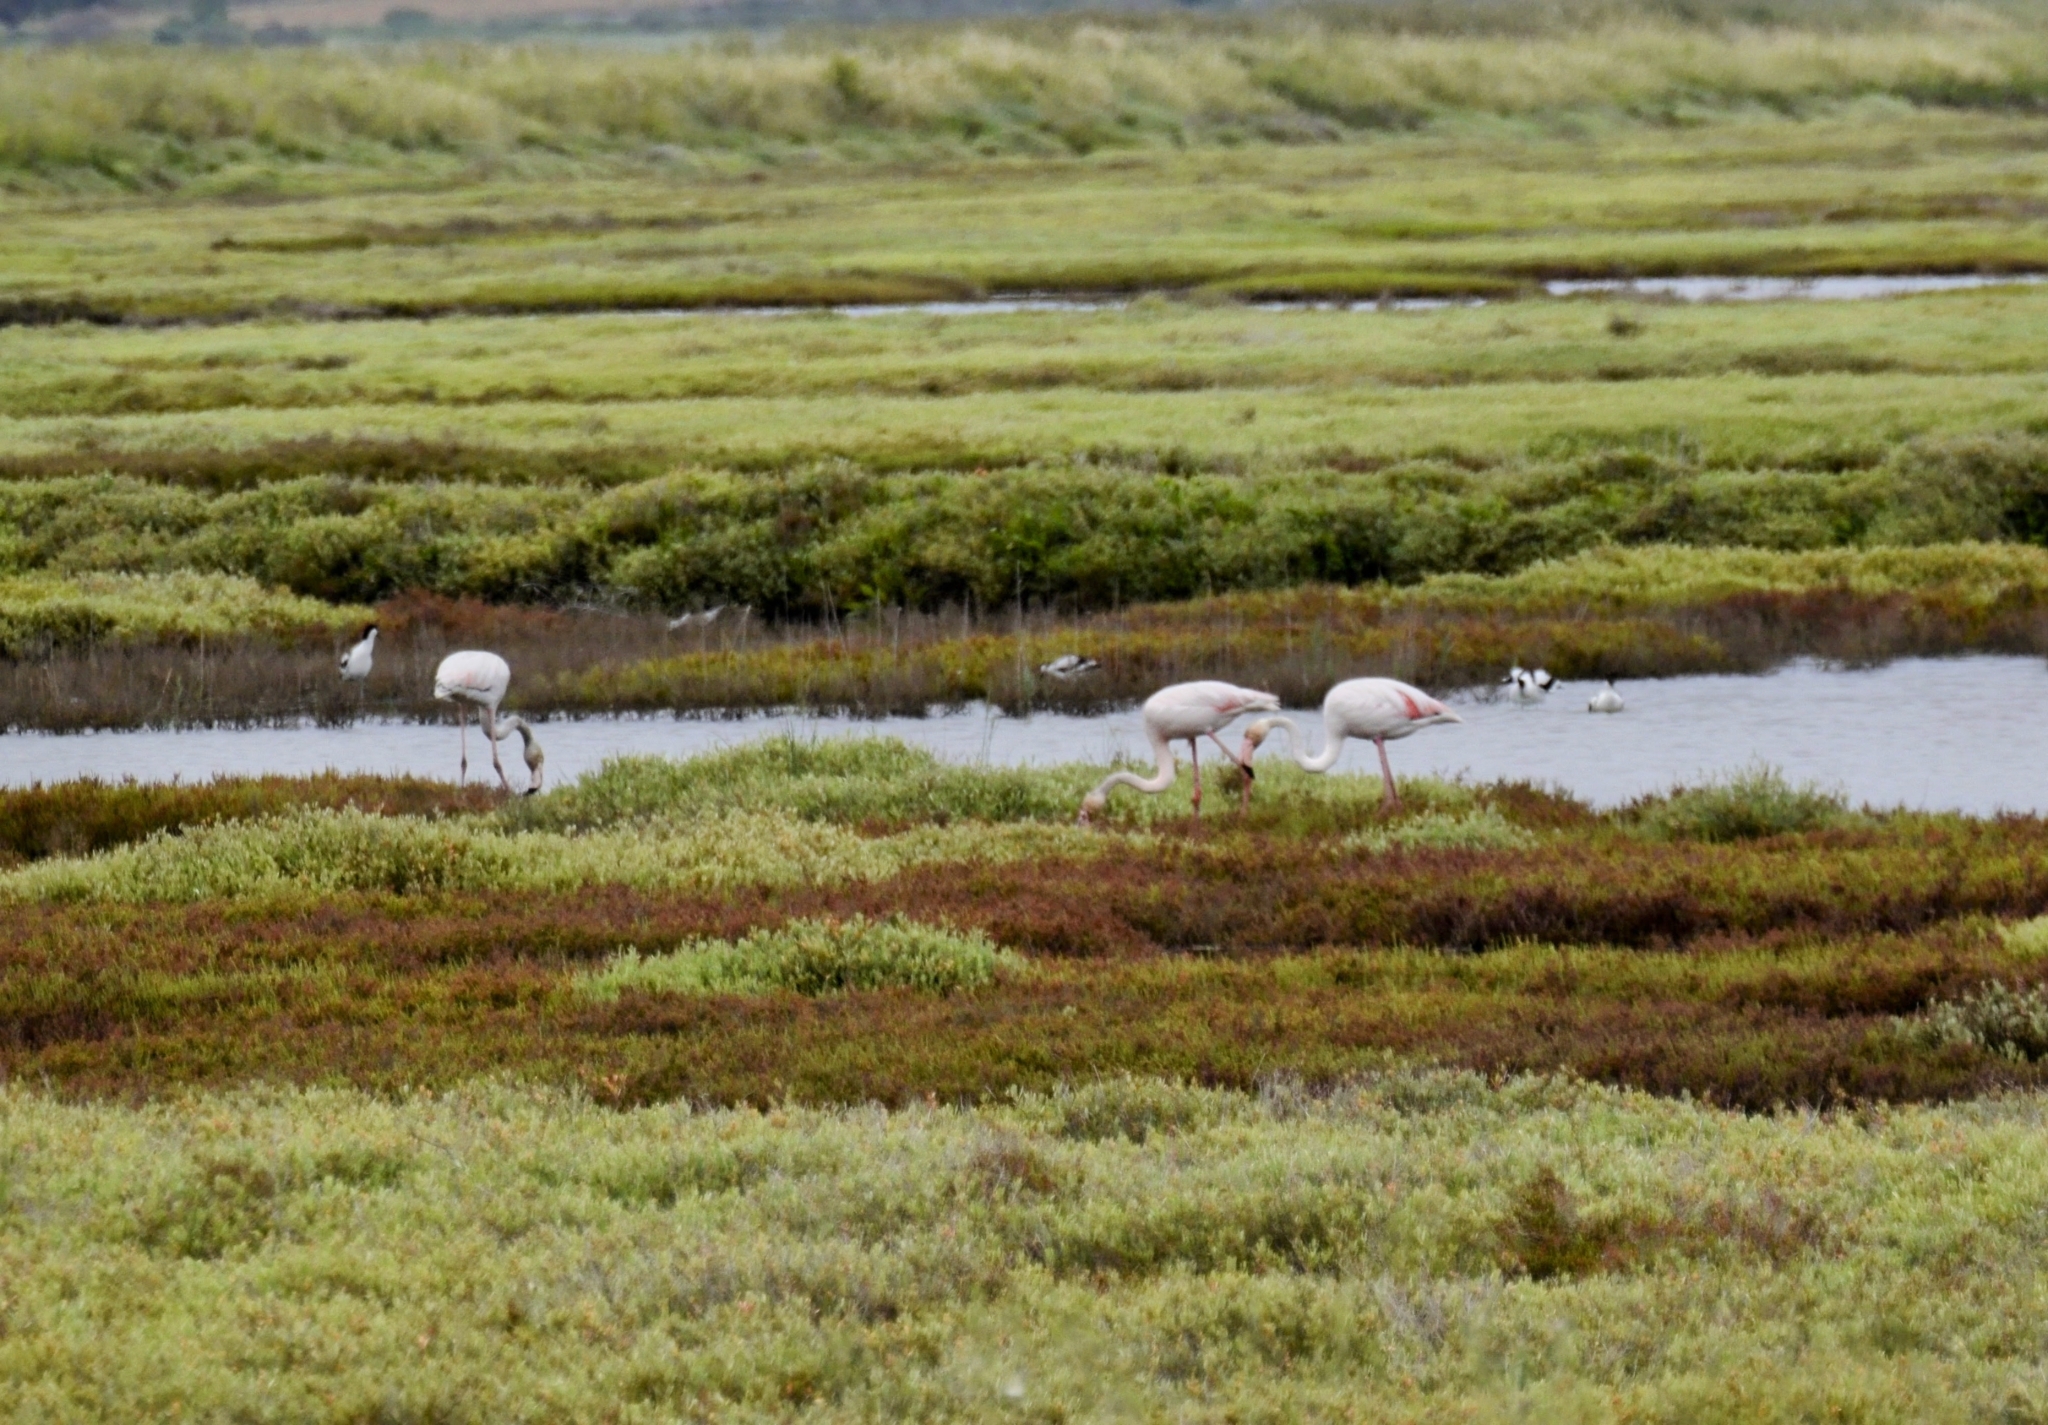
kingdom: Animalia
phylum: Chordata
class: Aves
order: Phoenicopteriformes
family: Phoenicopteridae
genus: Phoenicopterus
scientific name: Phoenicopterus roseus
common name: Greater flamingo
